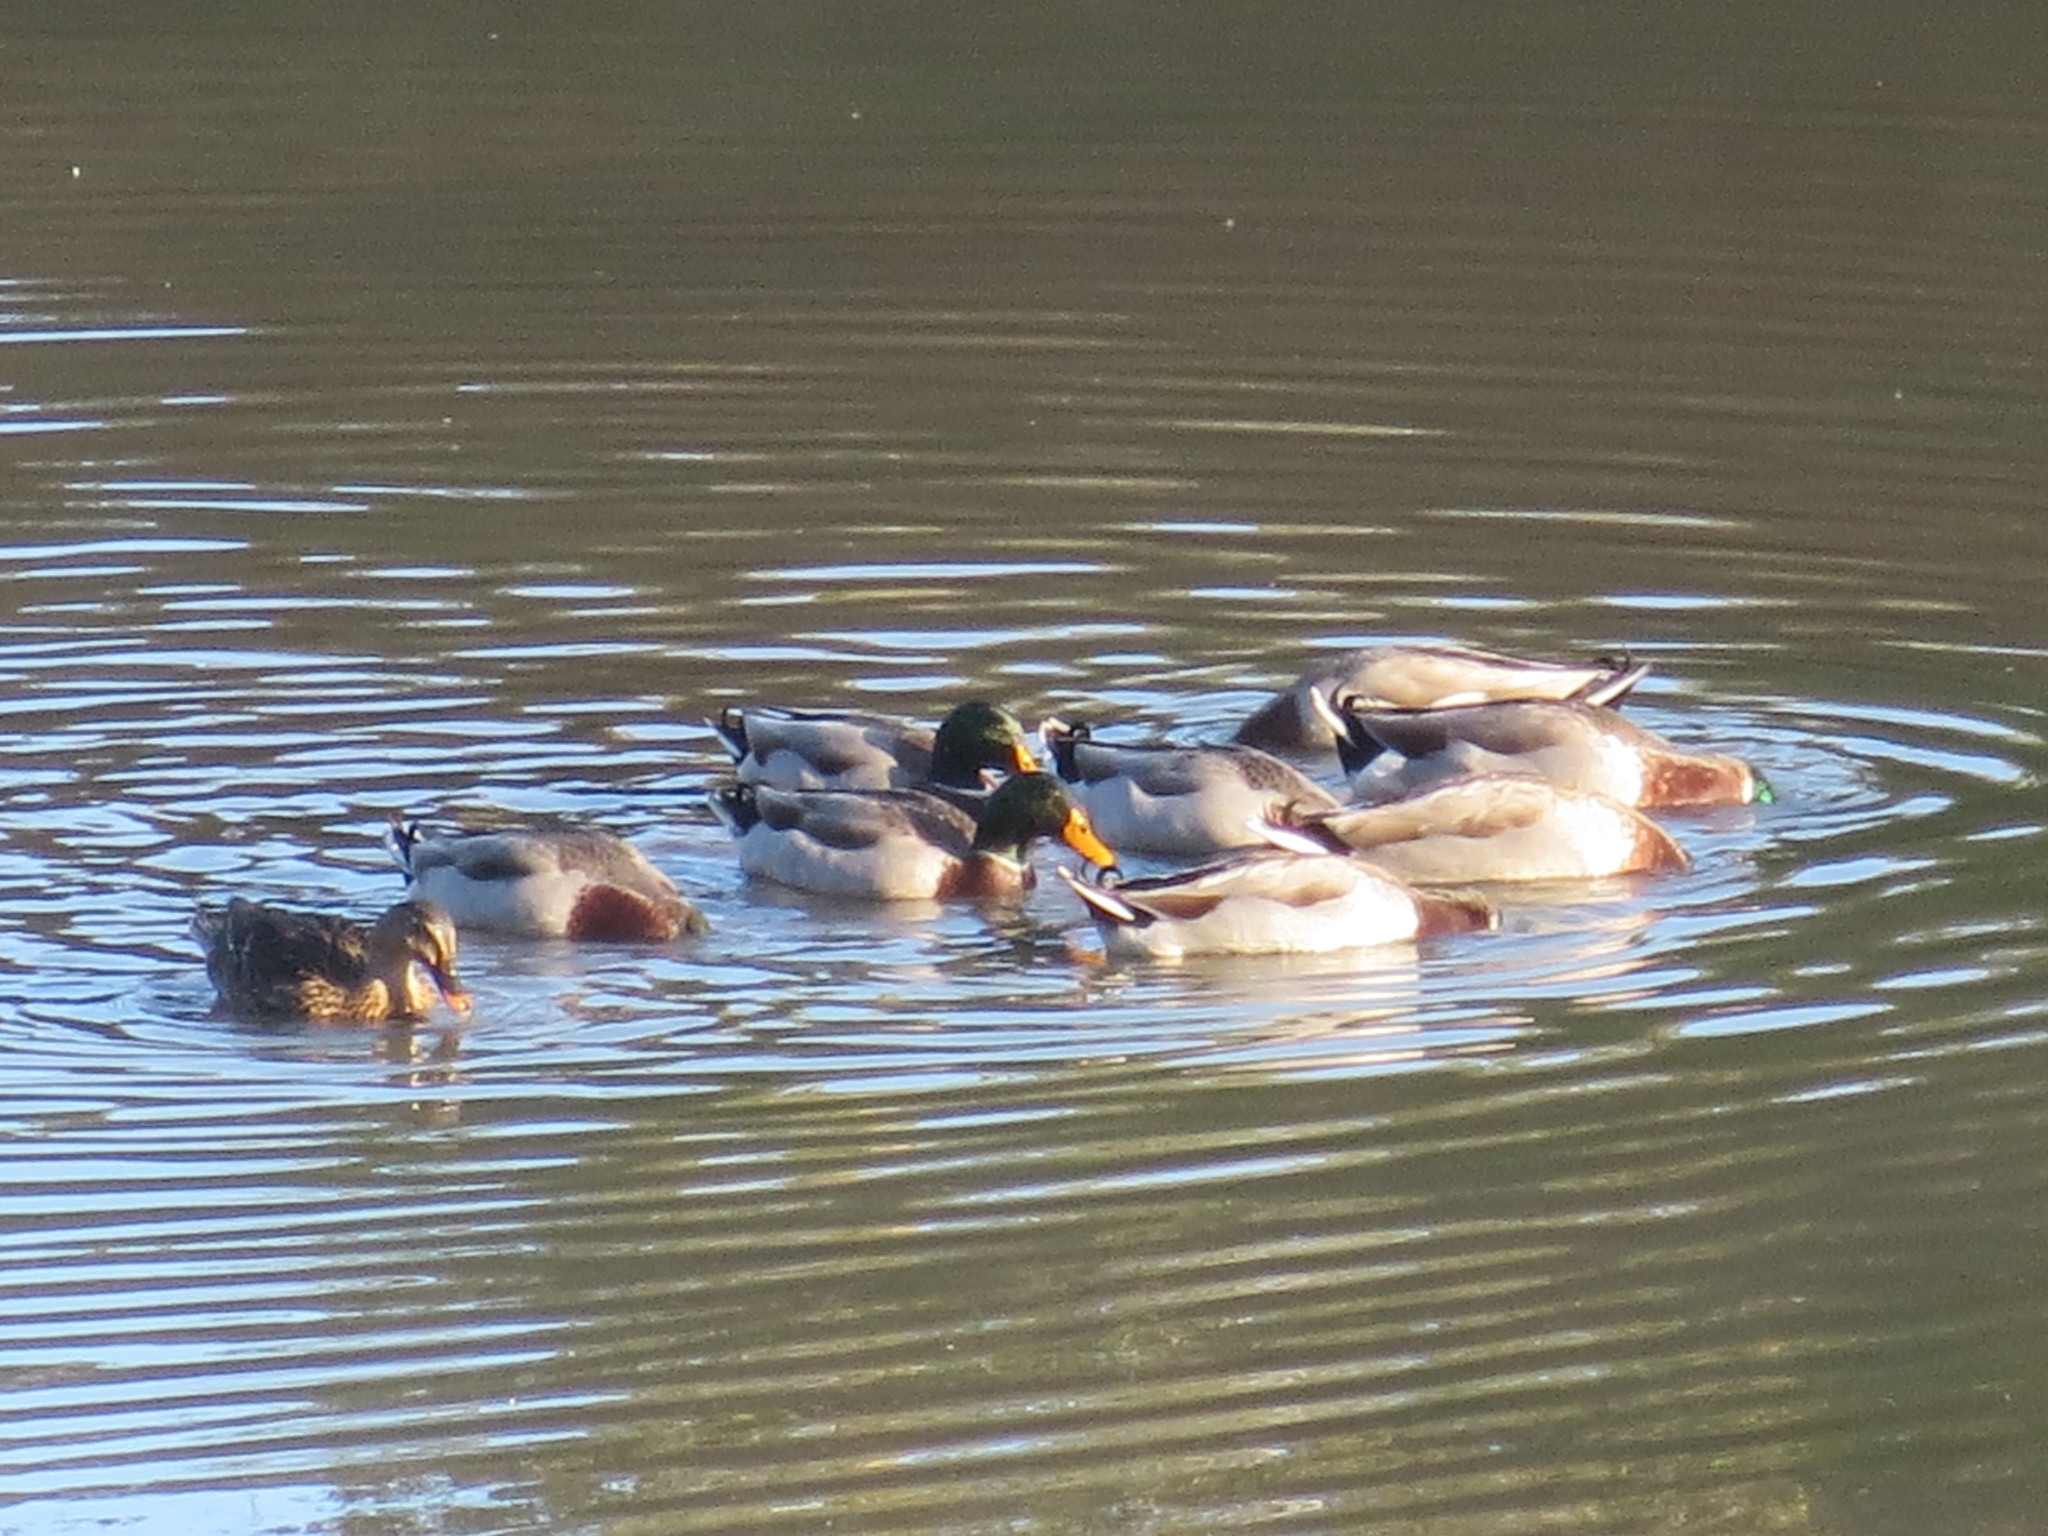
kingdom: Animalia
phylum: Chordata
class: Aves
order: Anseriformes
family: Anatidae
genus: Anas
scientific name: Anas platyrhynchos
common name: Mallard
